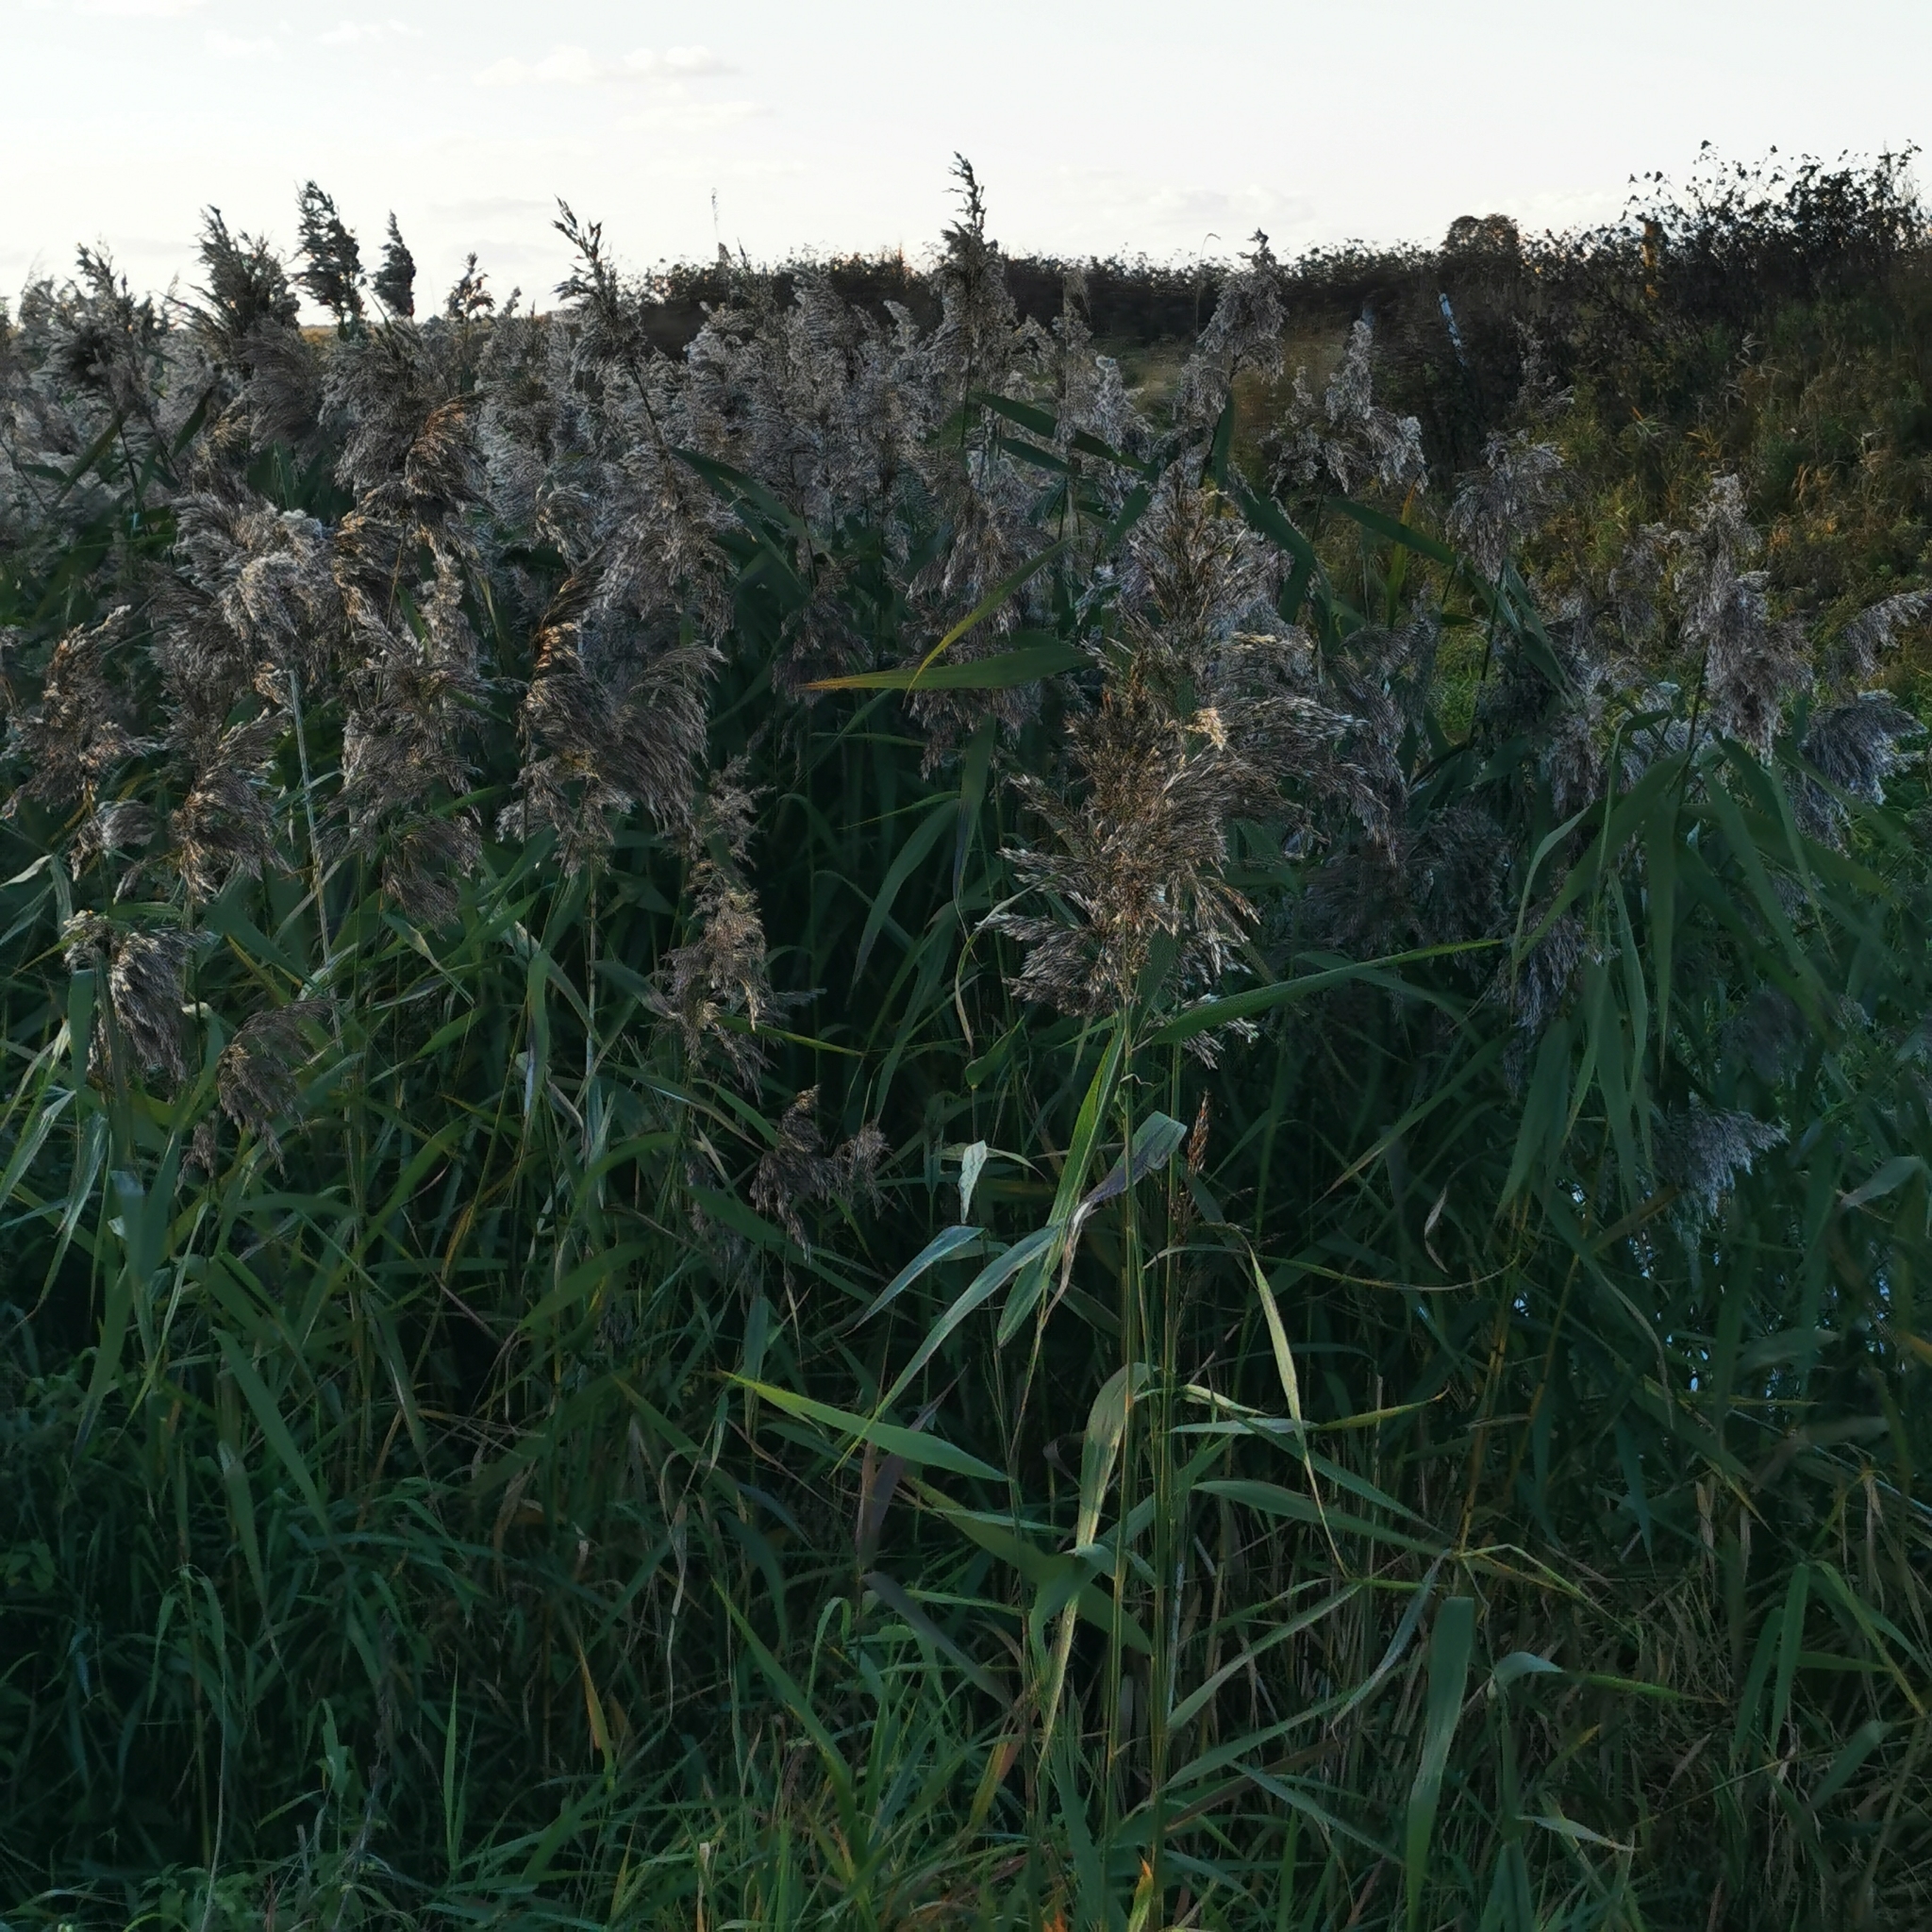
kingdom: Plantae
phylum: Tracheophyta
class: Liliopsida
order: Poales
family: Poaceae
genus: Phragmites
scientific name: Phragmites australis
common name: Common reed
